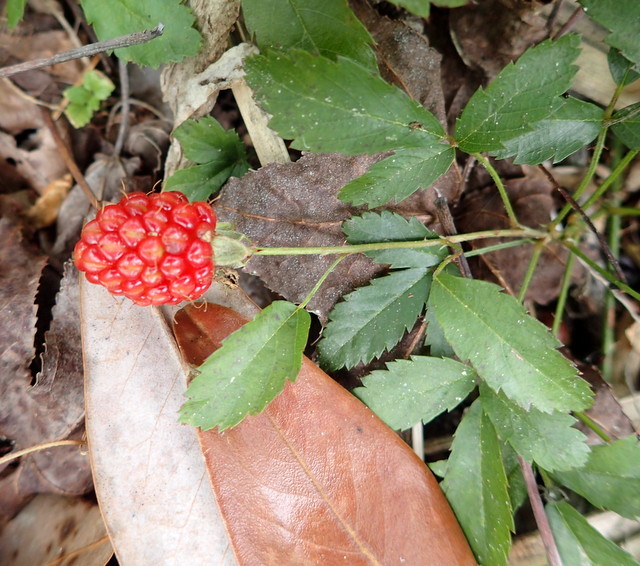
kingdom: Plantae
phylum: Tracheophyta
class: Magnoliopsida
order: Rosales
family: Rosaceae
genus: Rubus
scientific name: Rubus trivialis
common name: Southern dewberry
